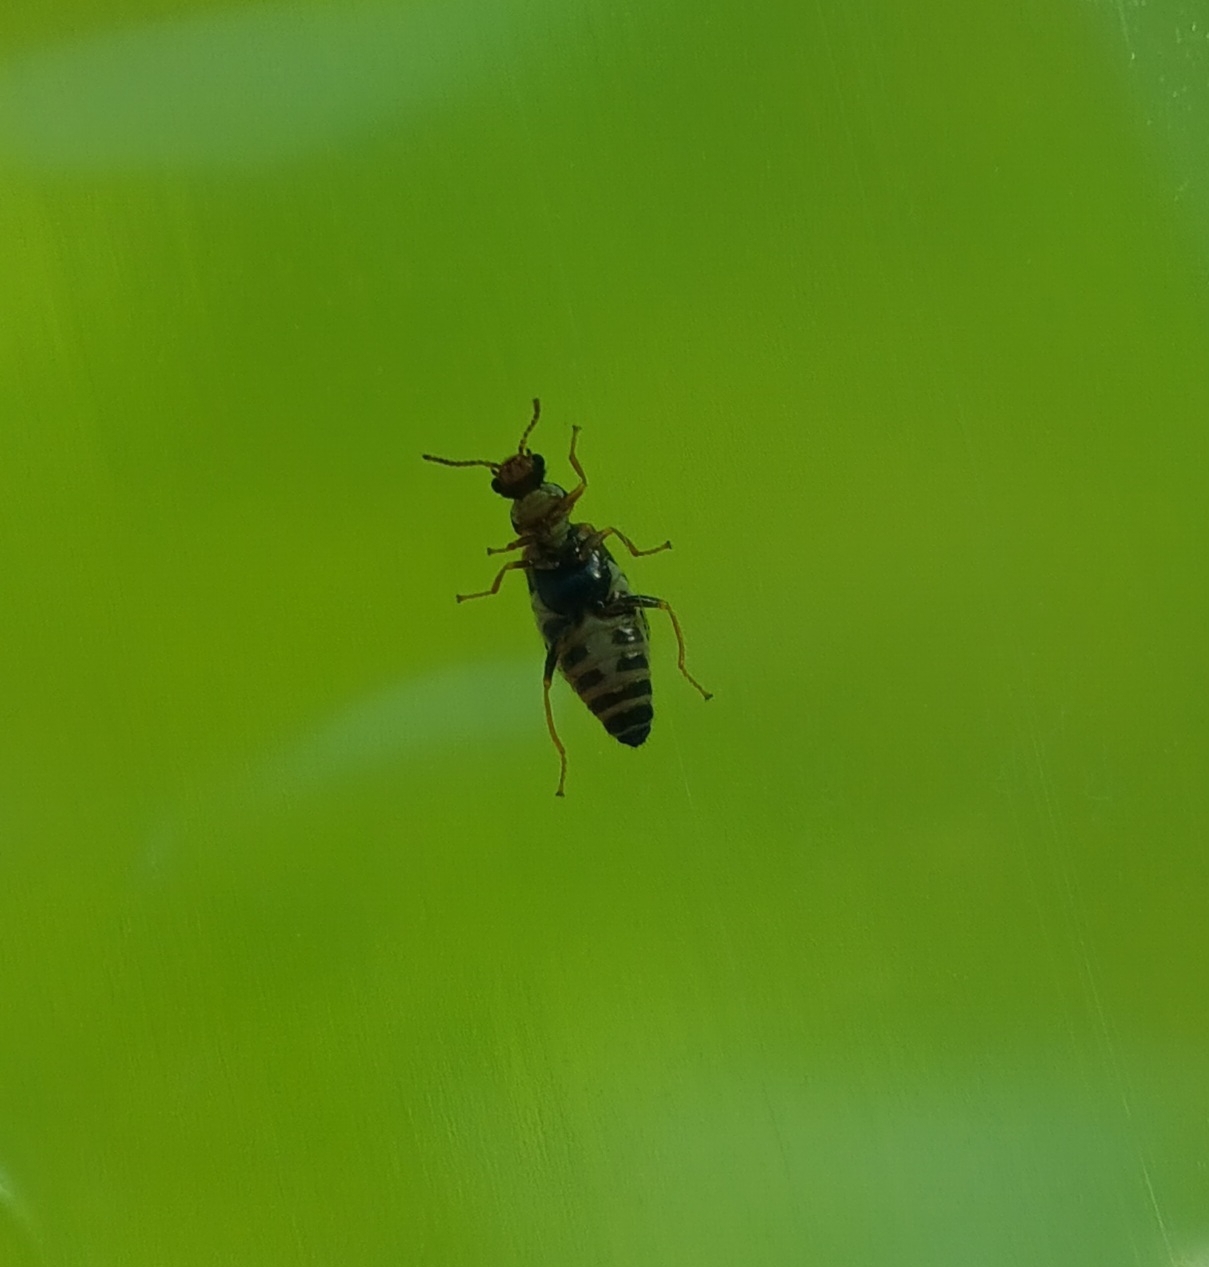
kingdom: Animalia
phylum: Arthropoda
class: Insecta
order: Coleoptera
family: Malachiidae
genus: Attalus
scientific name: Attalus
